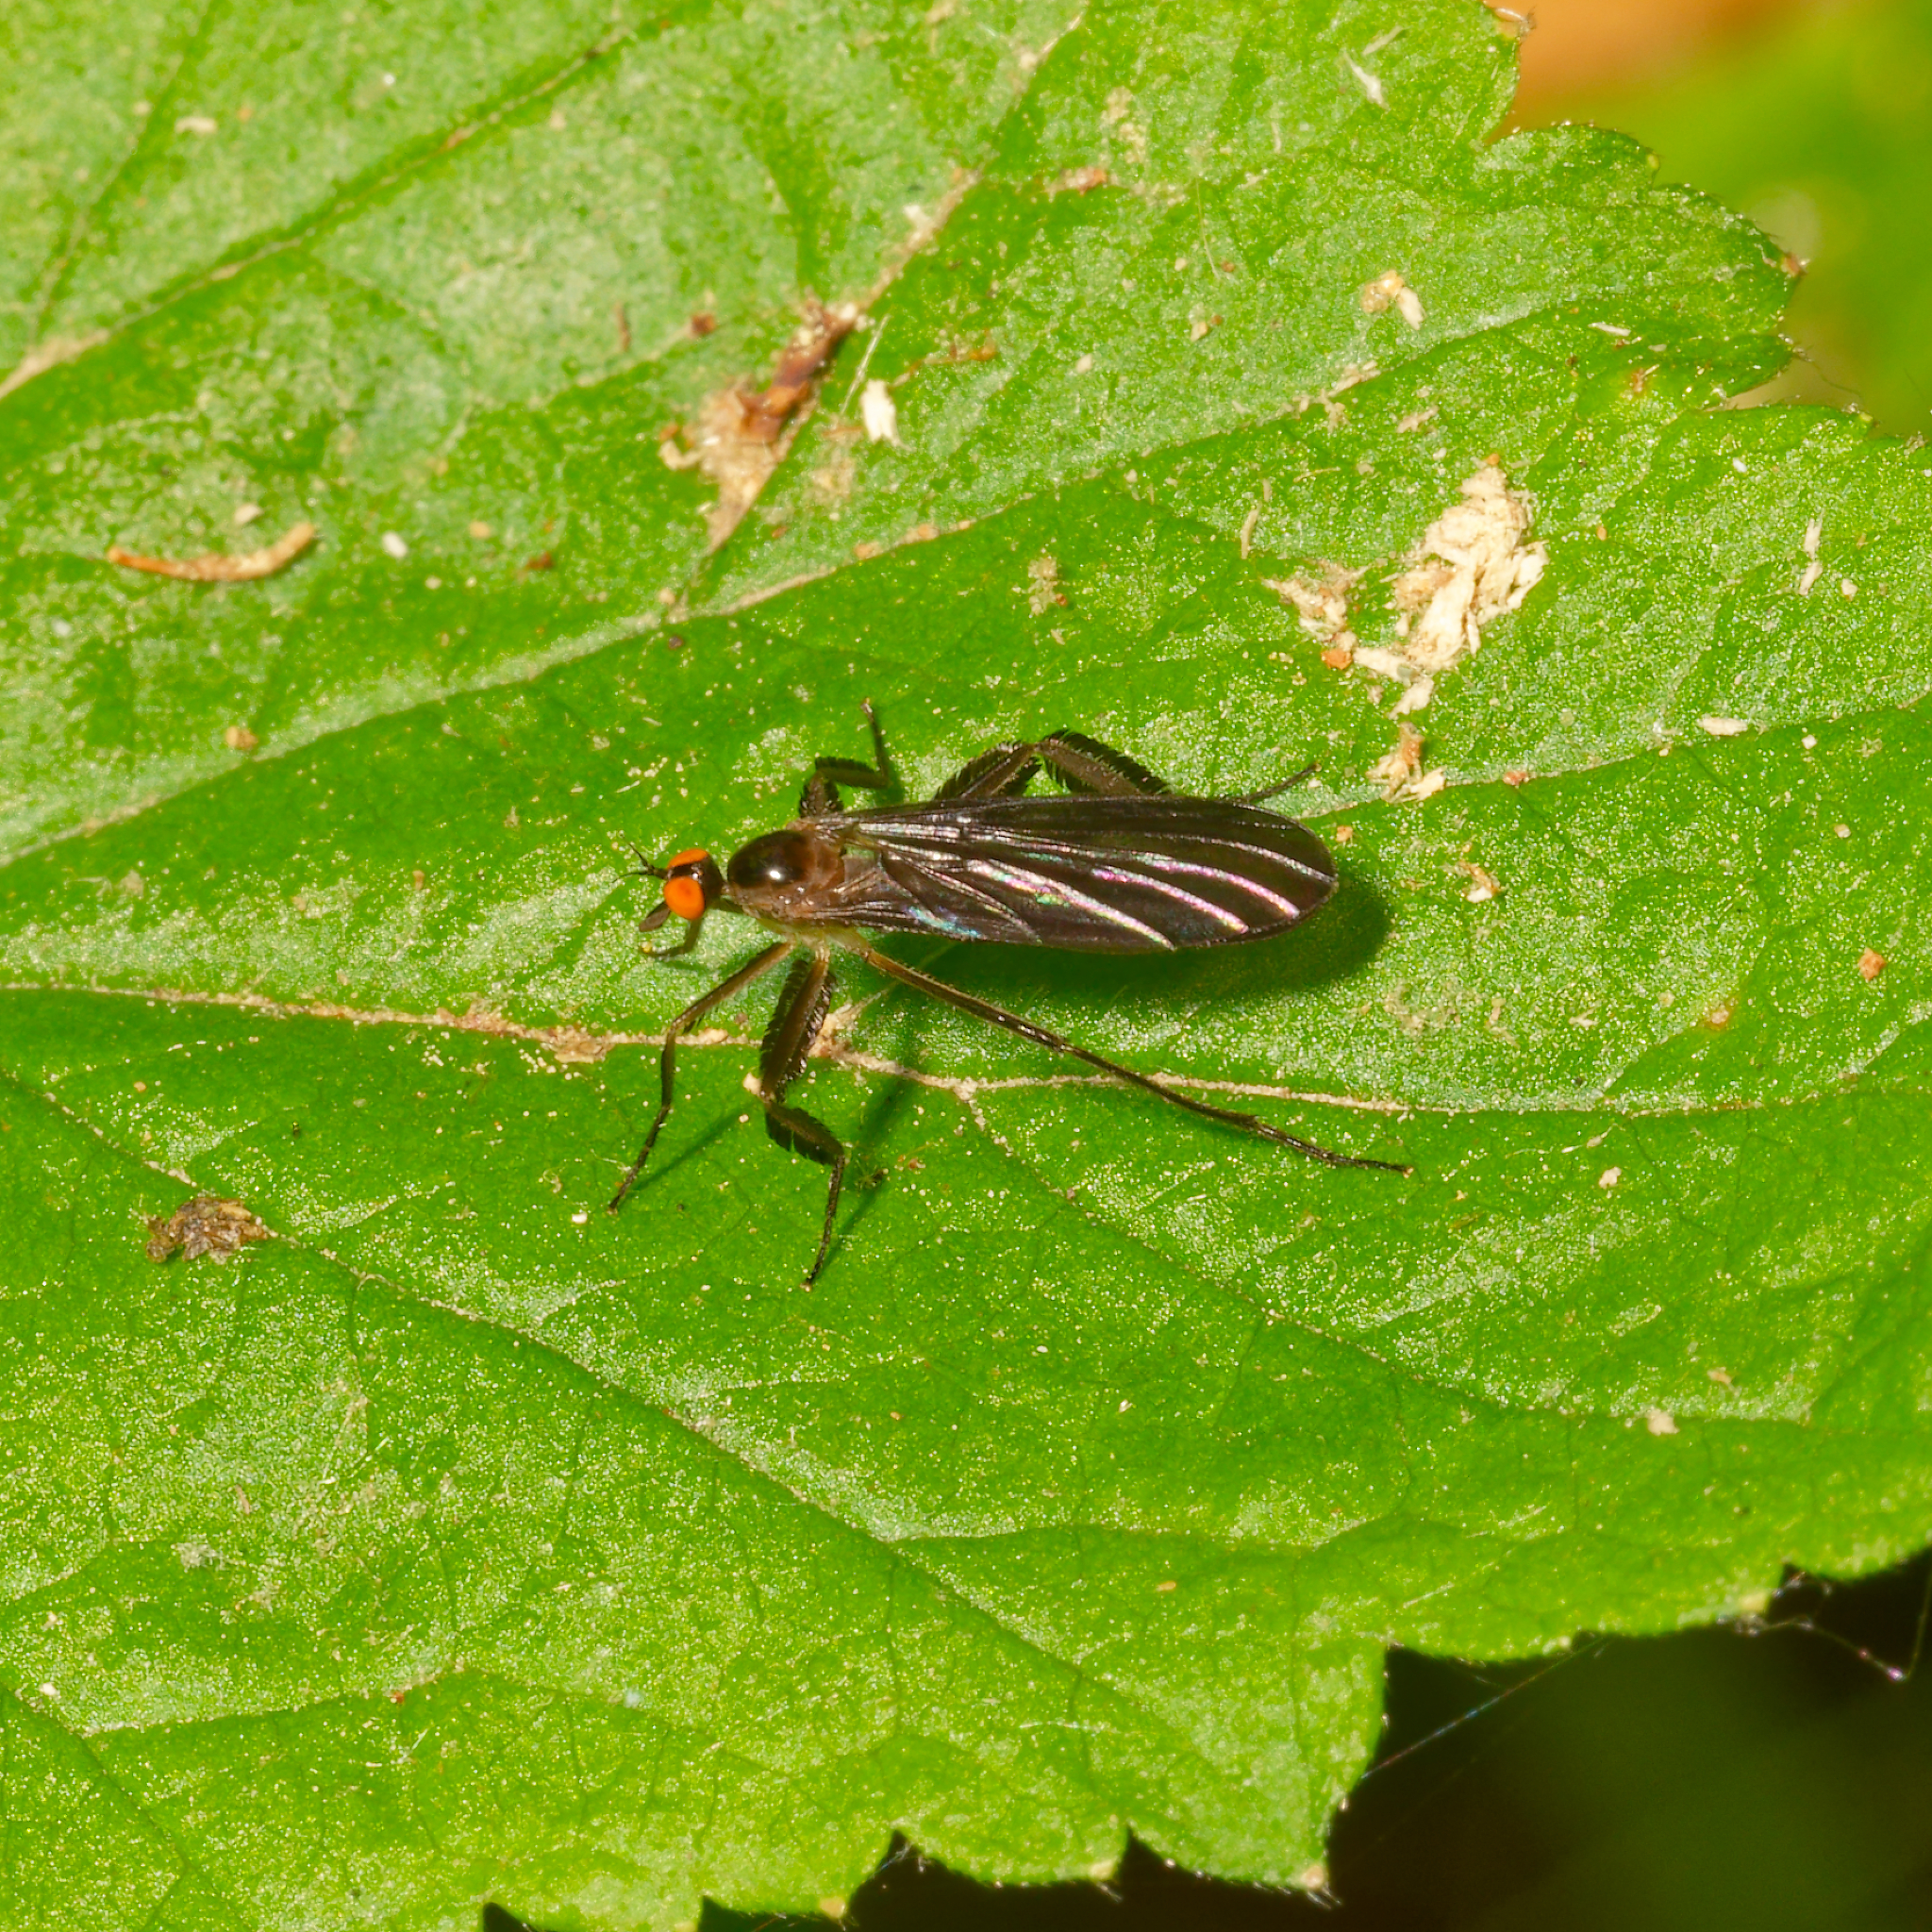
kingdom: Animalia
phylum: Arthropoda
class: Insecta
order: Diptera
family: Empididae
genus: Rhamphomyia
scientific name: Rhamphomyia longicauda
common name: Long-tailed dance fly
